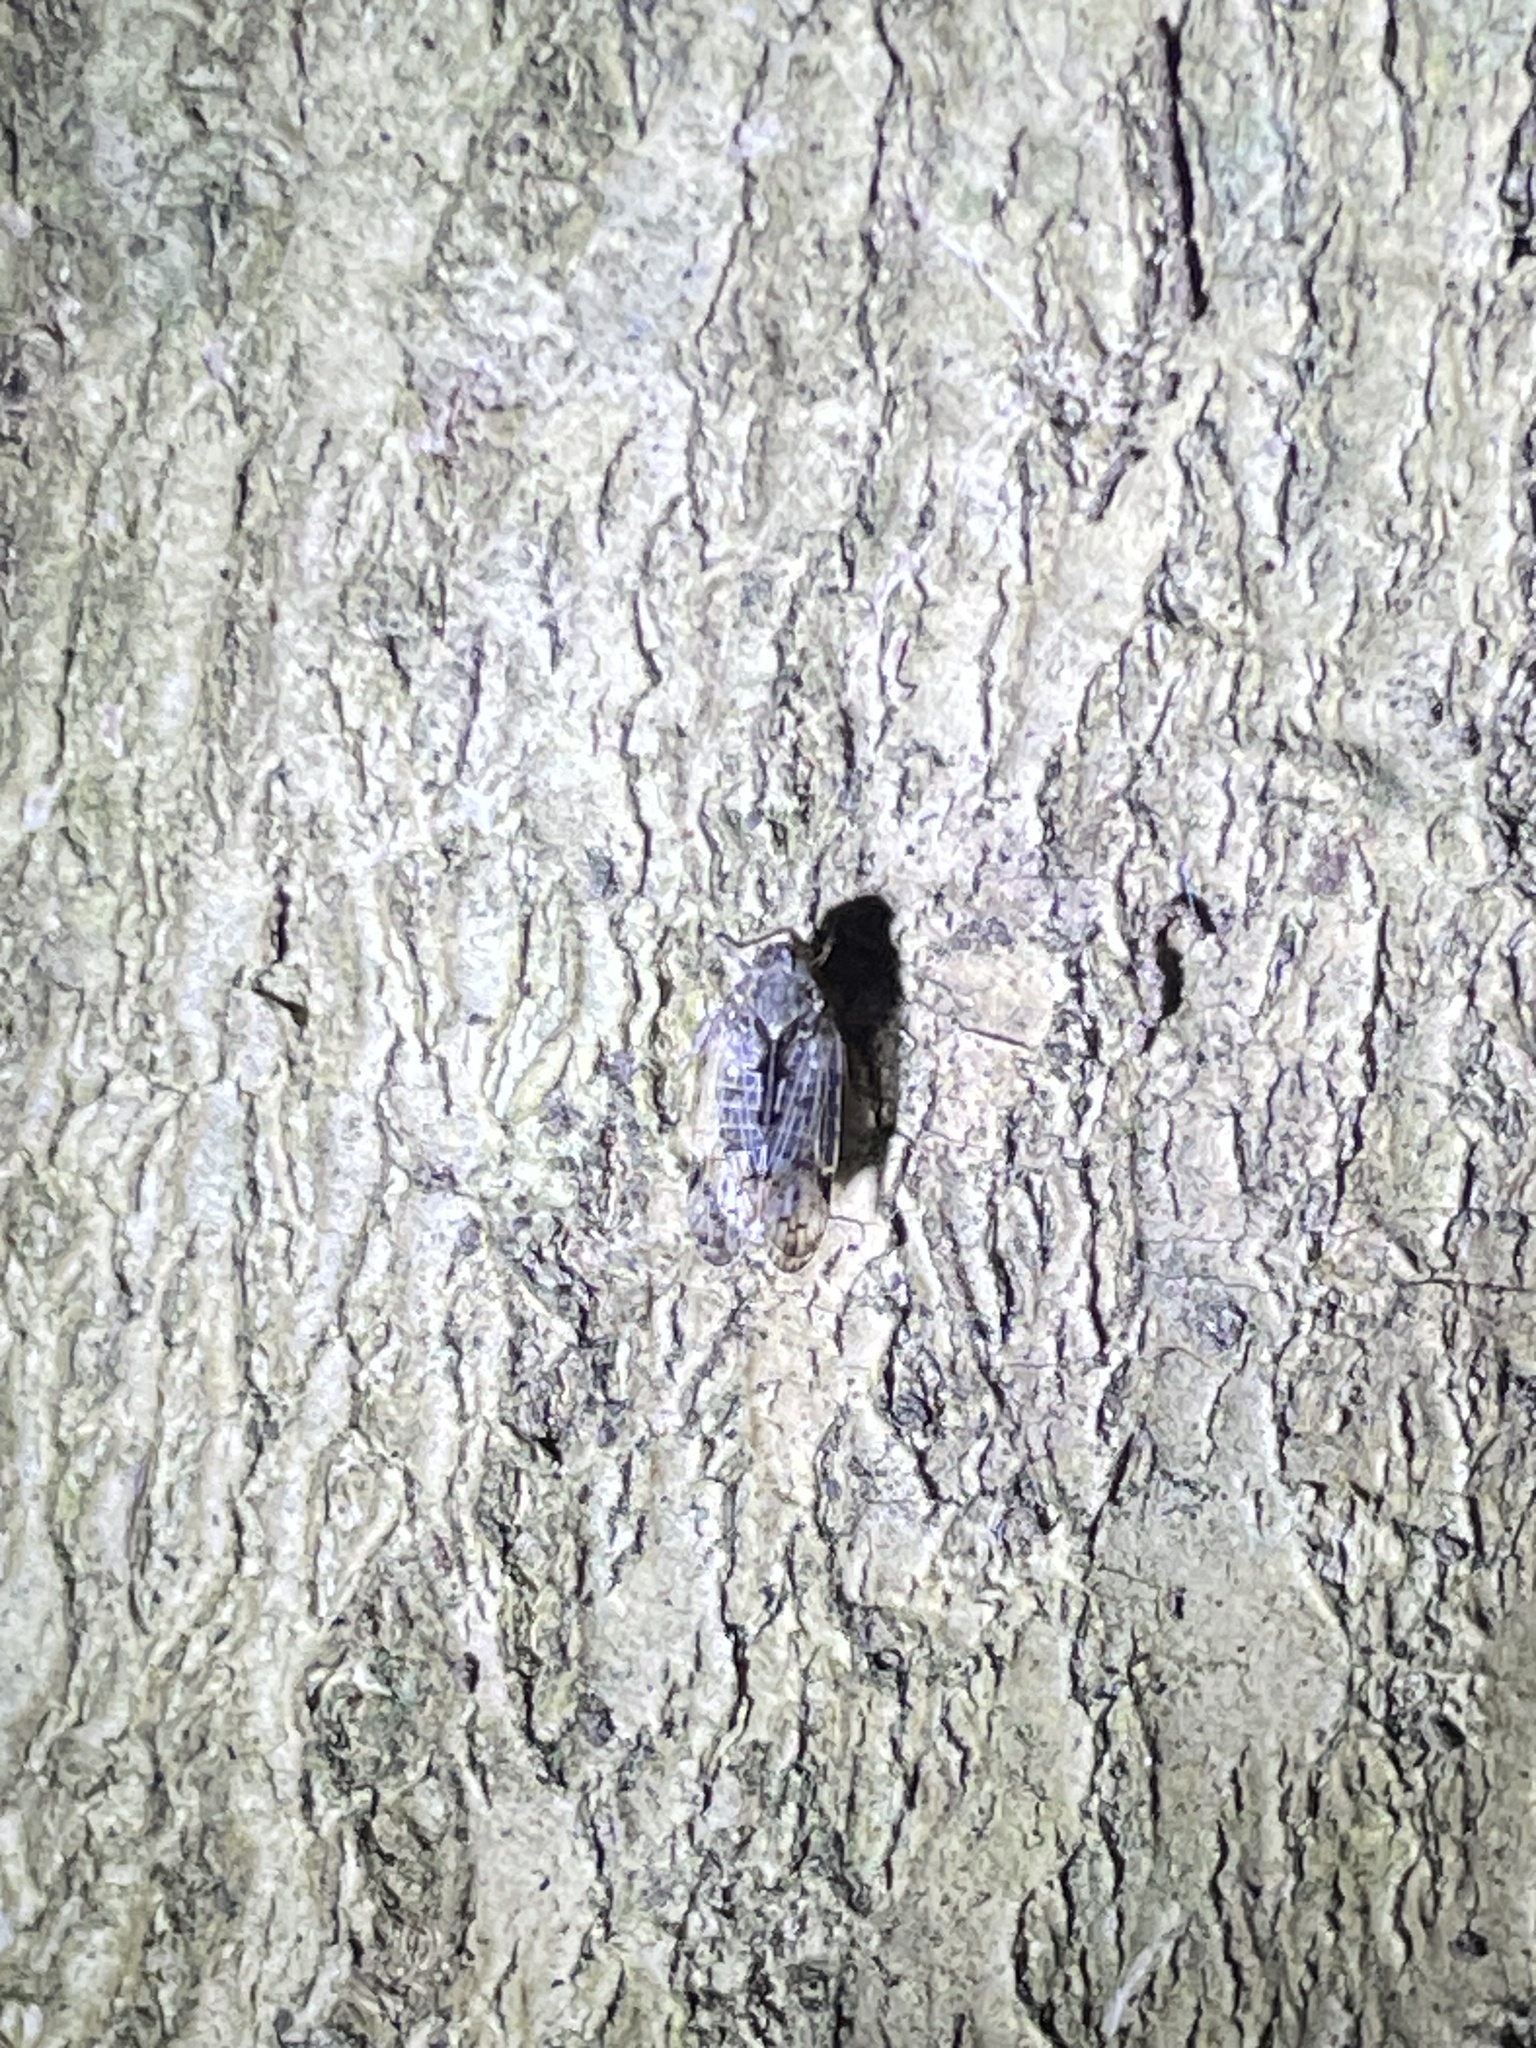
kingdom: Animalia
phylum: Arthropoda
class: Insecta
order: Hemiptera
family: Cixiidae
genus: Melanoliarus
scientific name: Melanoliarus placitus
